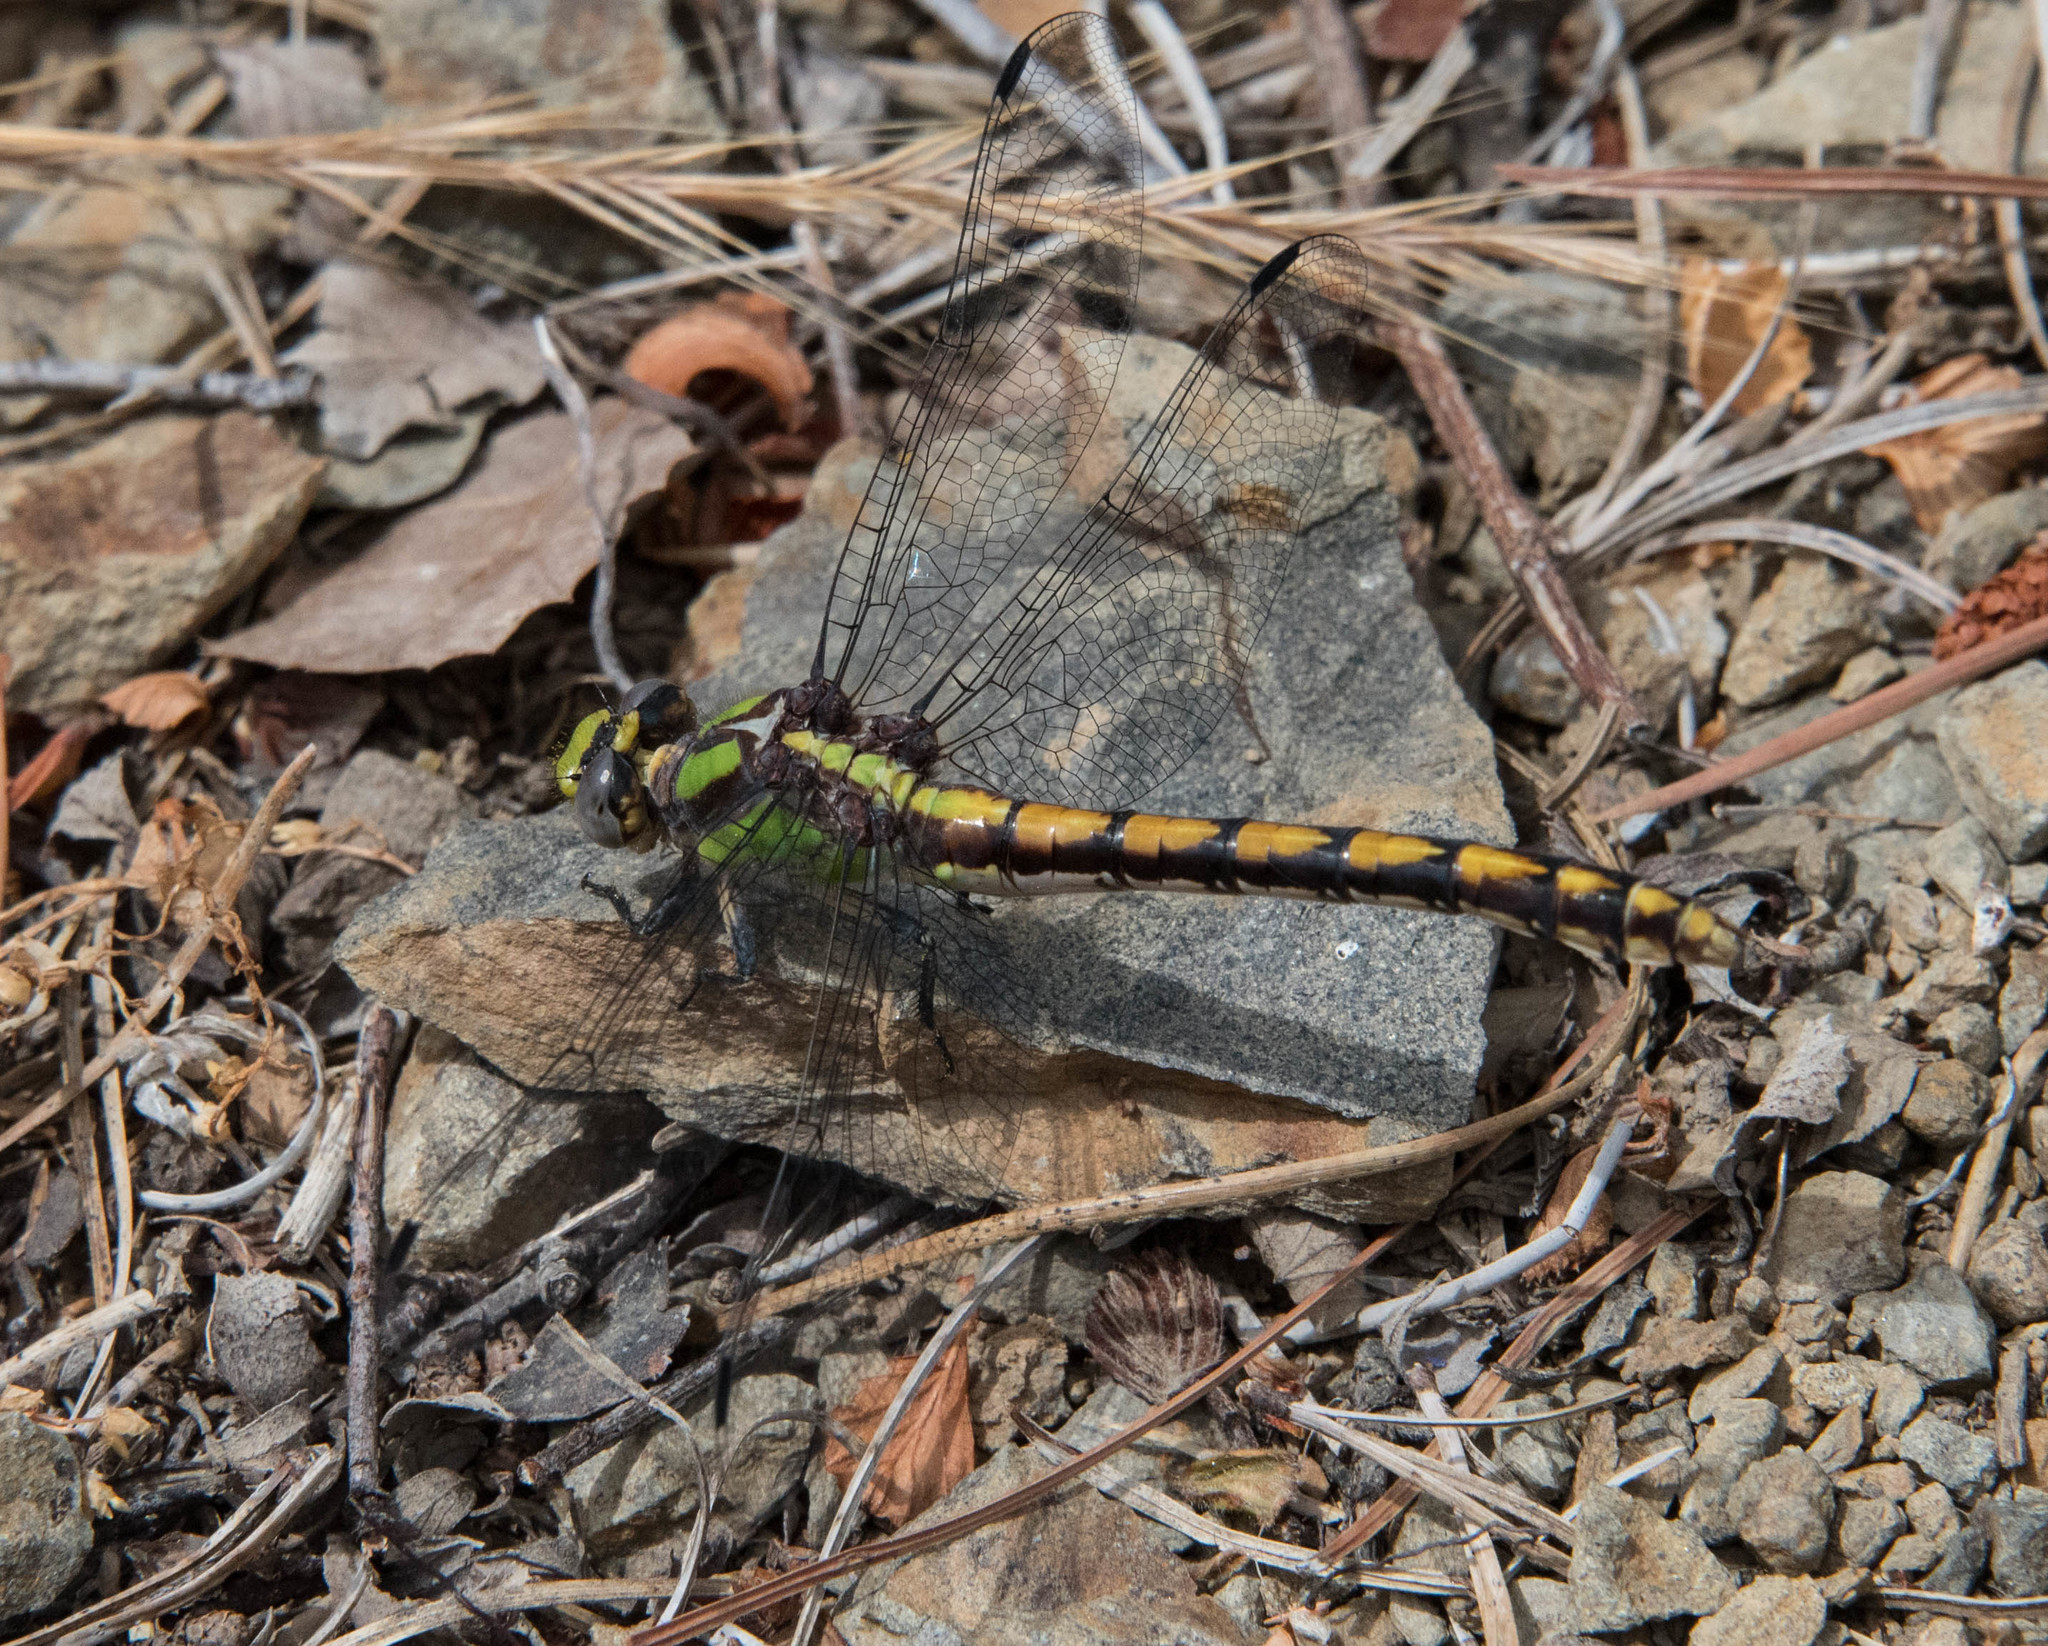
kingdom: Animalia
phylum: Arthropoda
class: Insecta
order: Odonata
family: Gomphidae
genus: Ophiogomphus
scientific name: Ophiogomphus bison
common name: Bison snaketail
